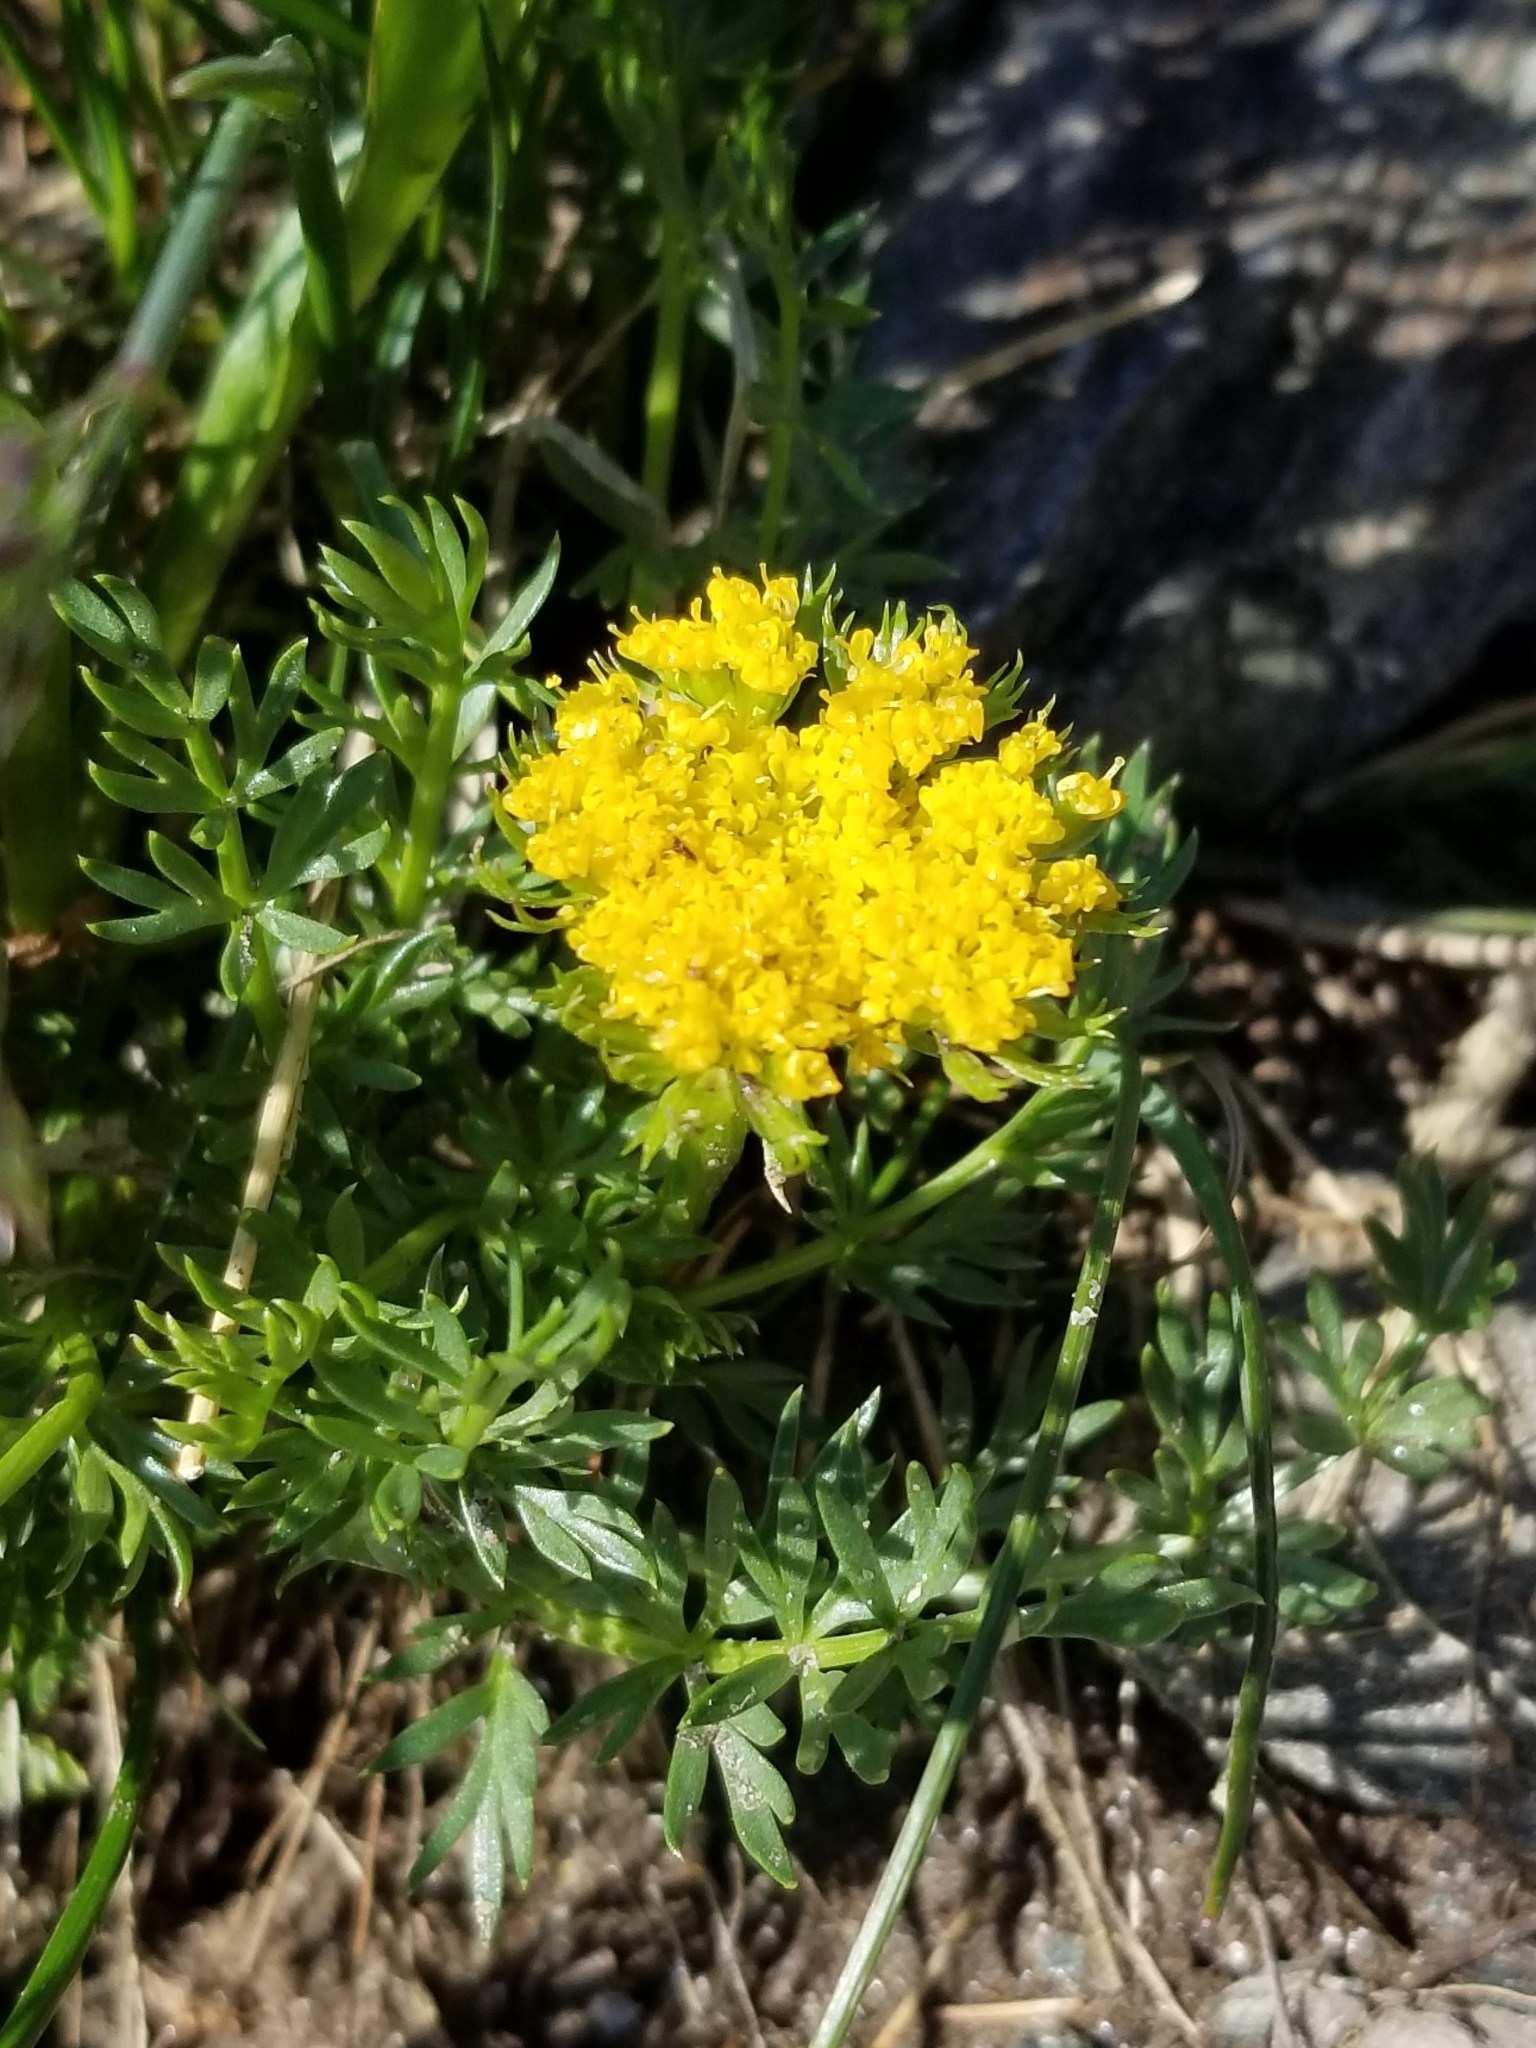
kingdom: Plantae
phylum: Tracheophyta
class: Magnoliopsida
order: Apiales
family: Apiaceae
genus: Cymopterus
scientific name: Cymopterus lemmonii
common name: Lemmon's spring-parsley
